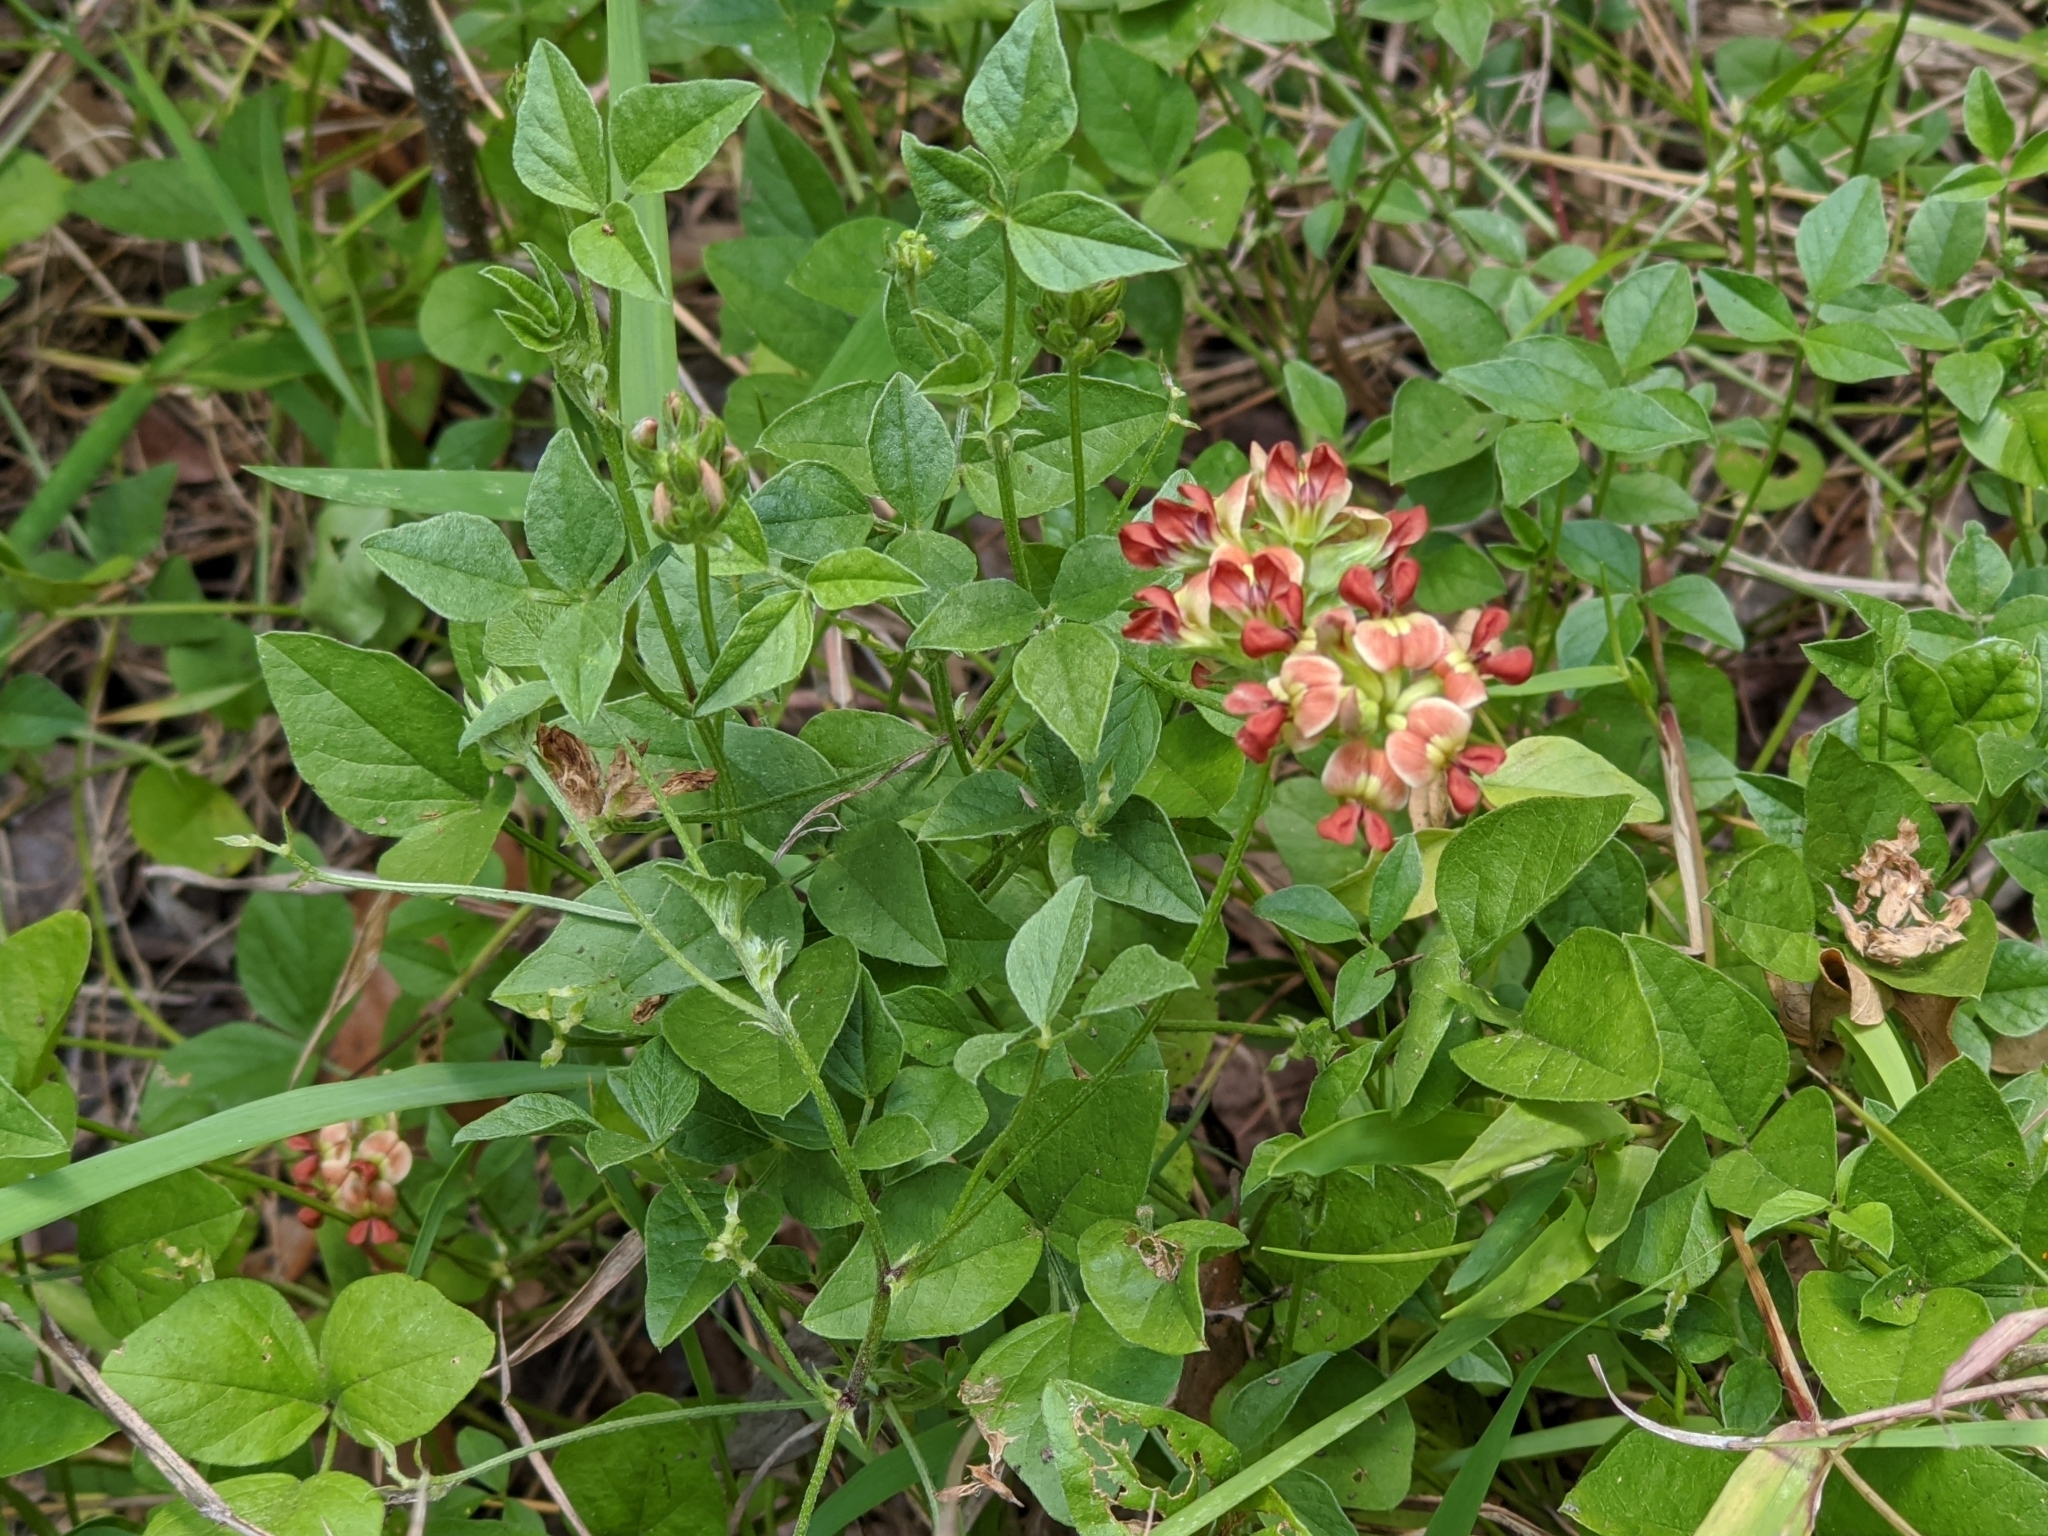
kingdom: Plantae
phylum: Tracheophyta
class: Magnoliopsida
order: Fabales
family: Fabaceae
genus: Pediomelum
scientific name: Pediomelum rhombifolium
